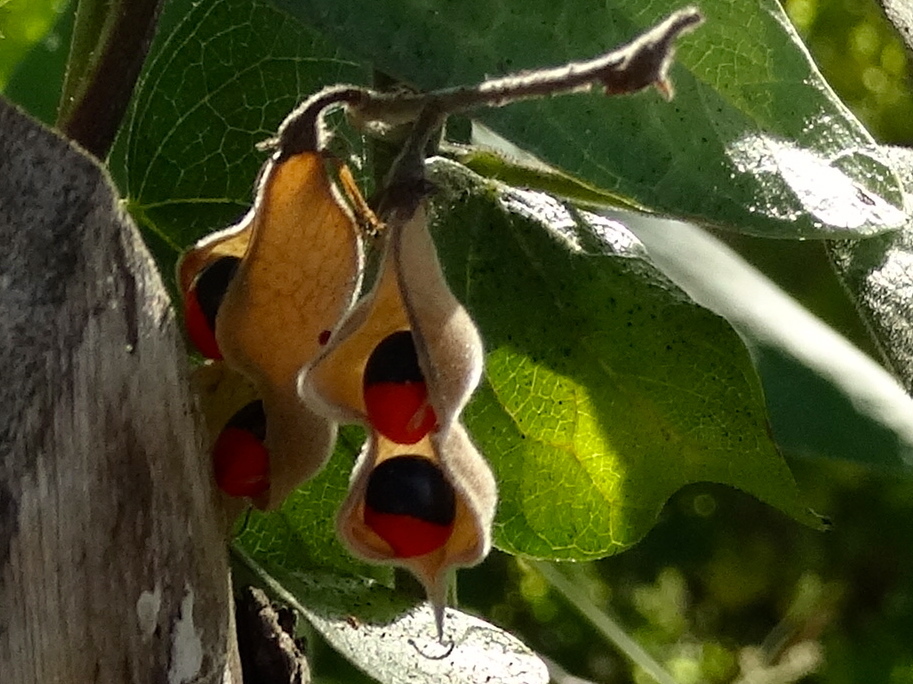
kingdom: Plantae
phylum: Tracheophyta
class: Magnoliopsida
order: Fabales
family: Fabaceae
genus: Rhynchosia
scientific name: Rhynchosia precatoria
